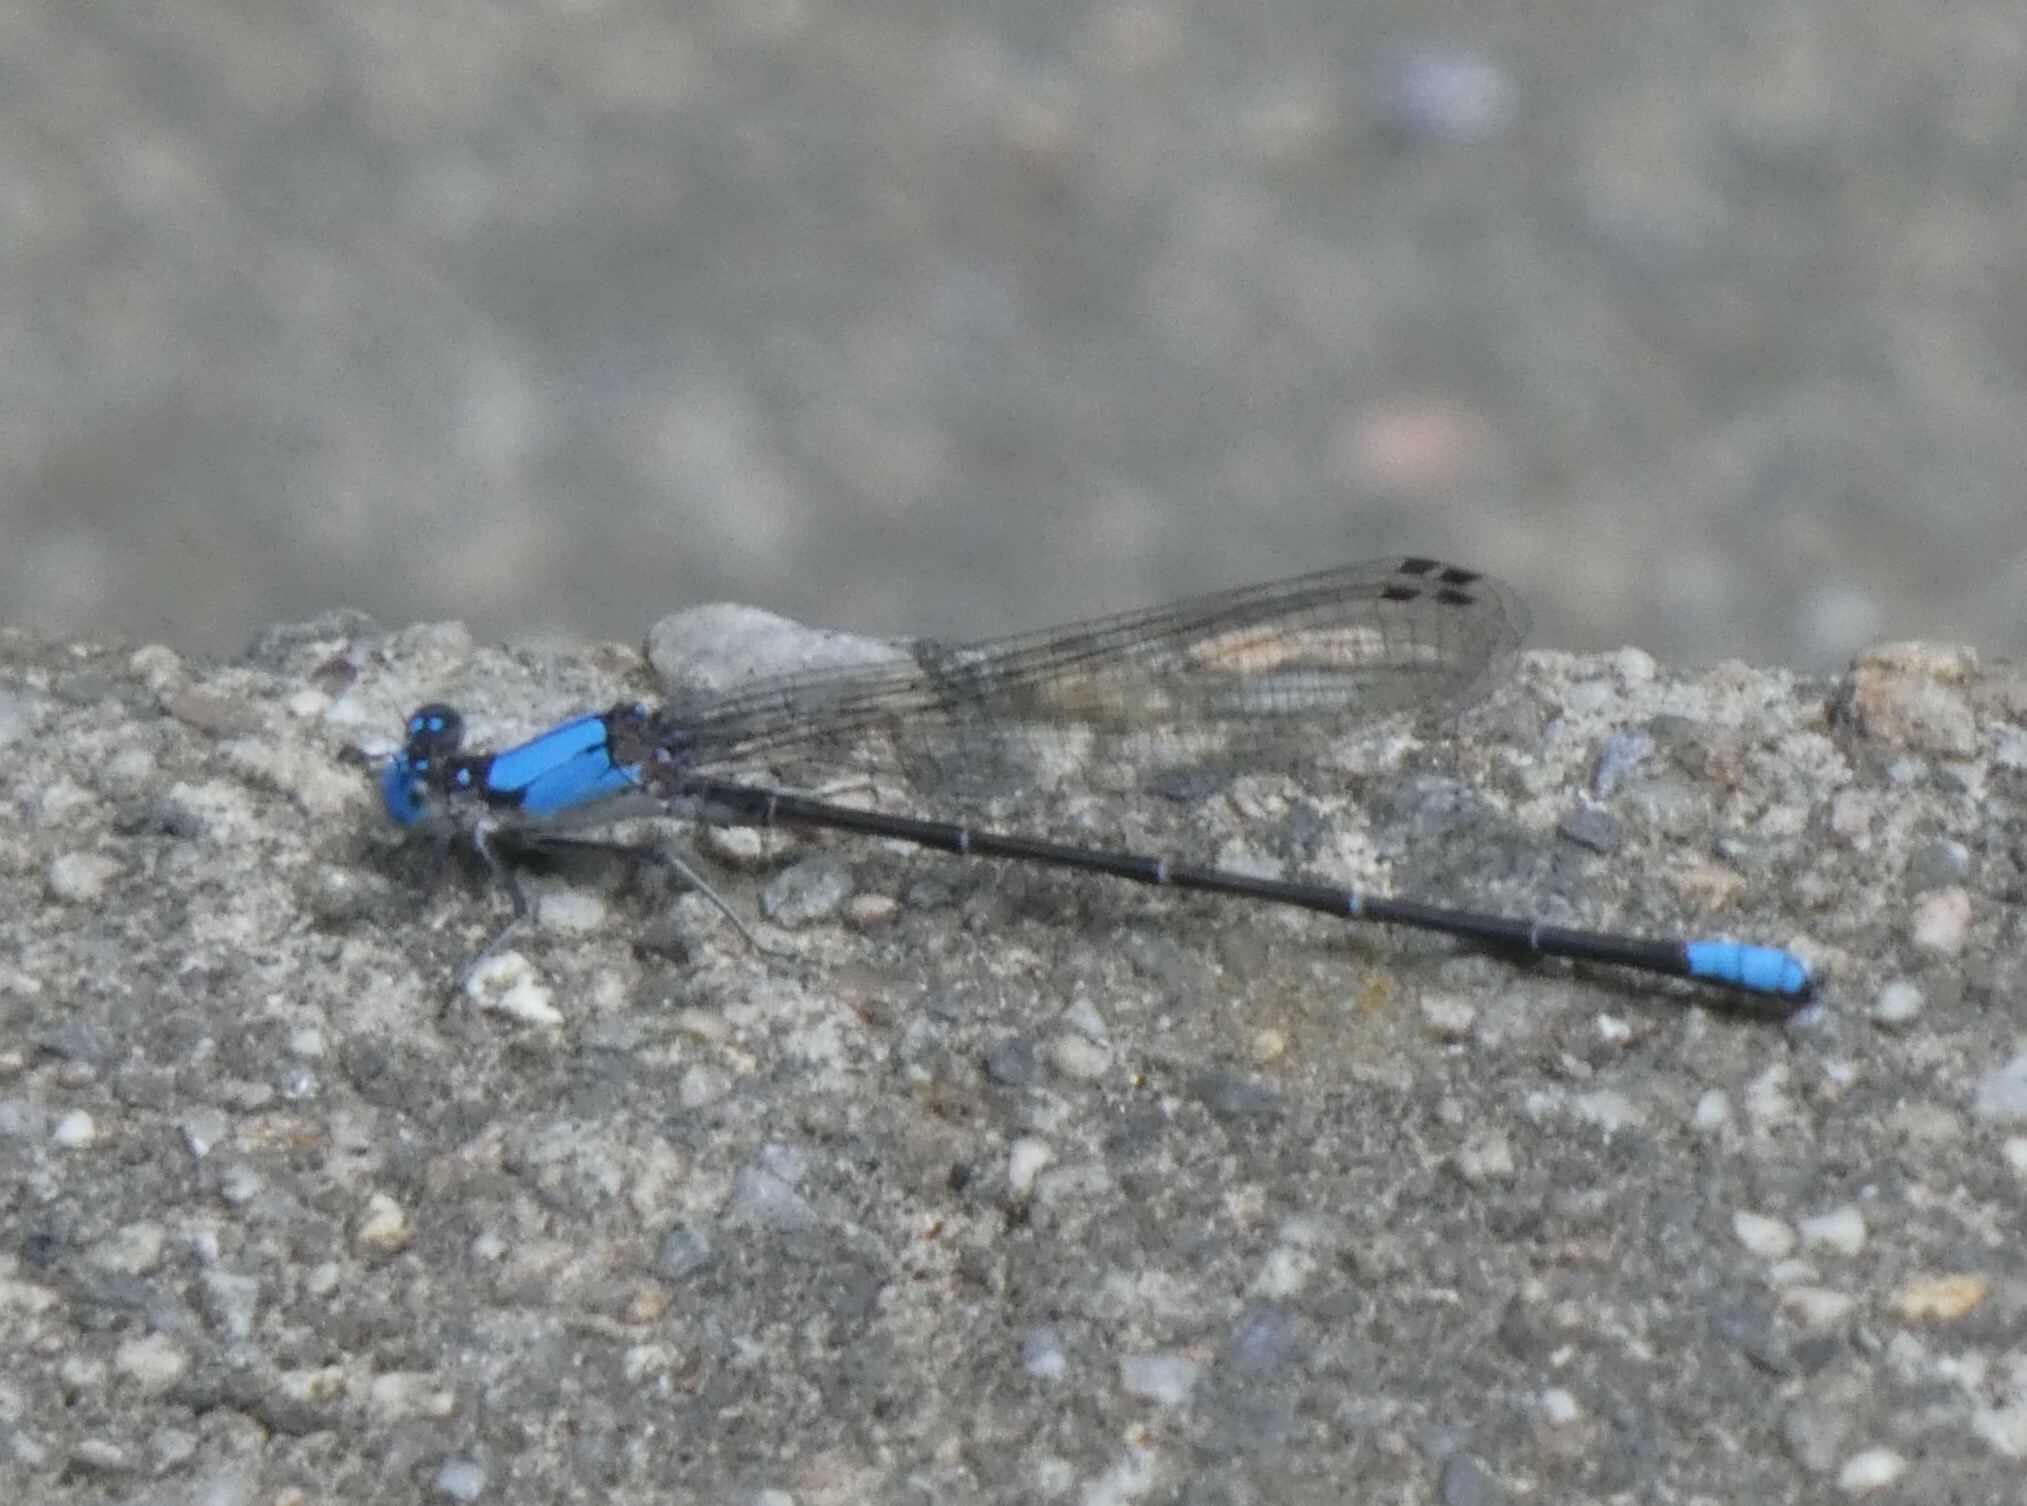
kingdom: Animalia
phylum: Arthropoda
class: Insecta
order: Odonata
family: Coenagrionidae
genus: Argia
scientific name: Argia apicalis
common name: Blue-fronted dancer
